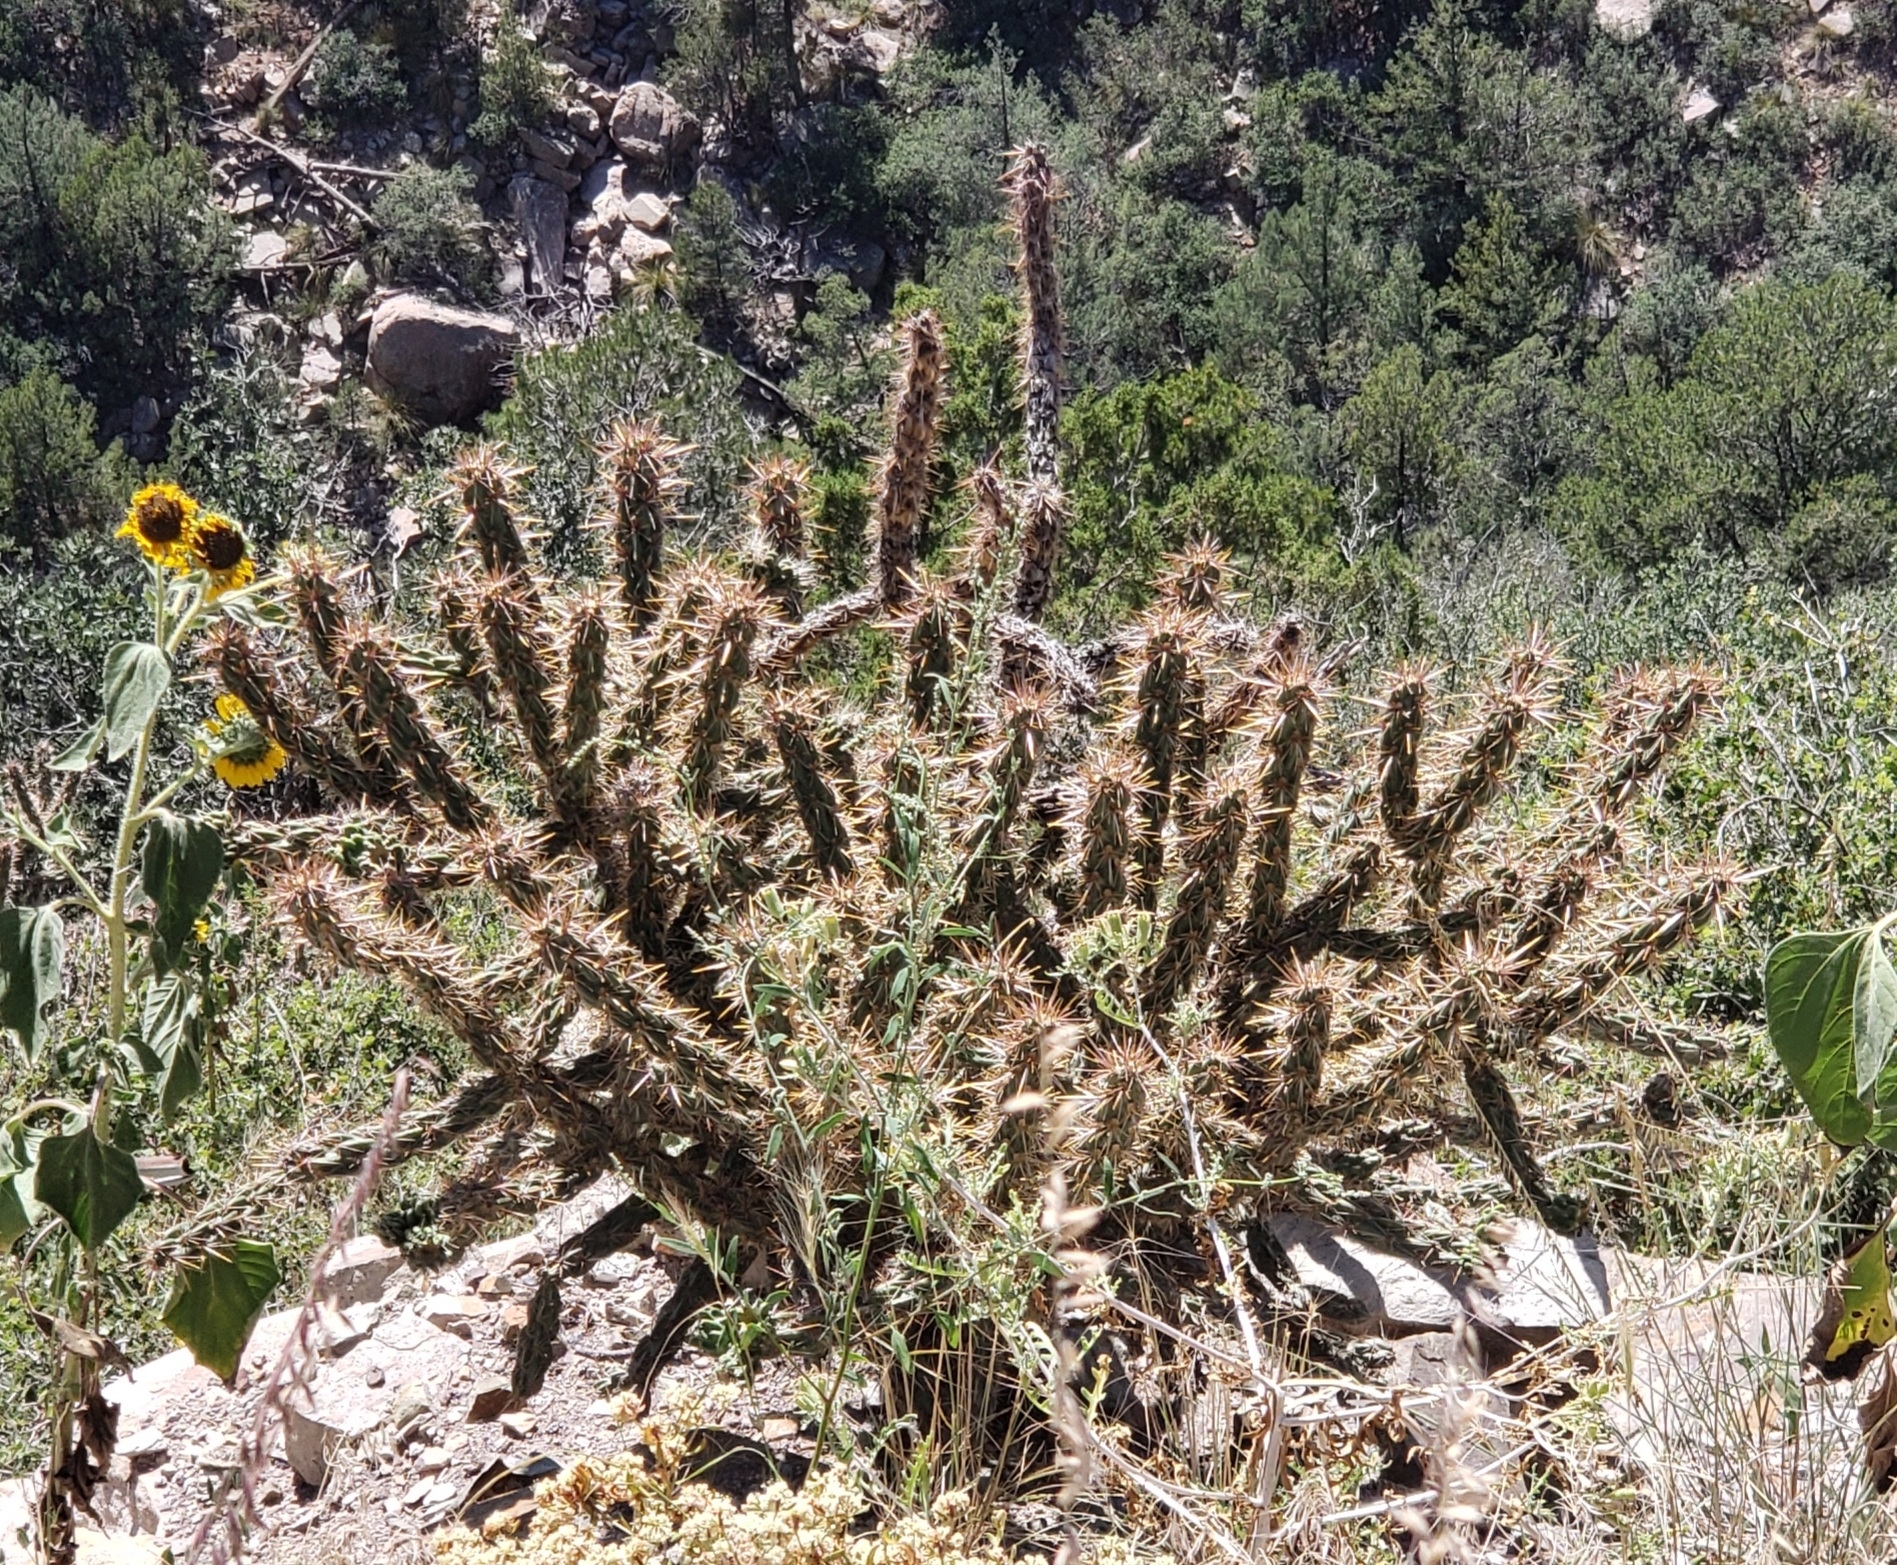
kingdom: Plantae
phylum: Tracheophyta
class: Magnoliopsida
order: Caryophyllales
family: Cactaceae
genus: Cylindropuntia
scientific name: Cylindropuntia imbricata
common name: Candelabrum cactus
